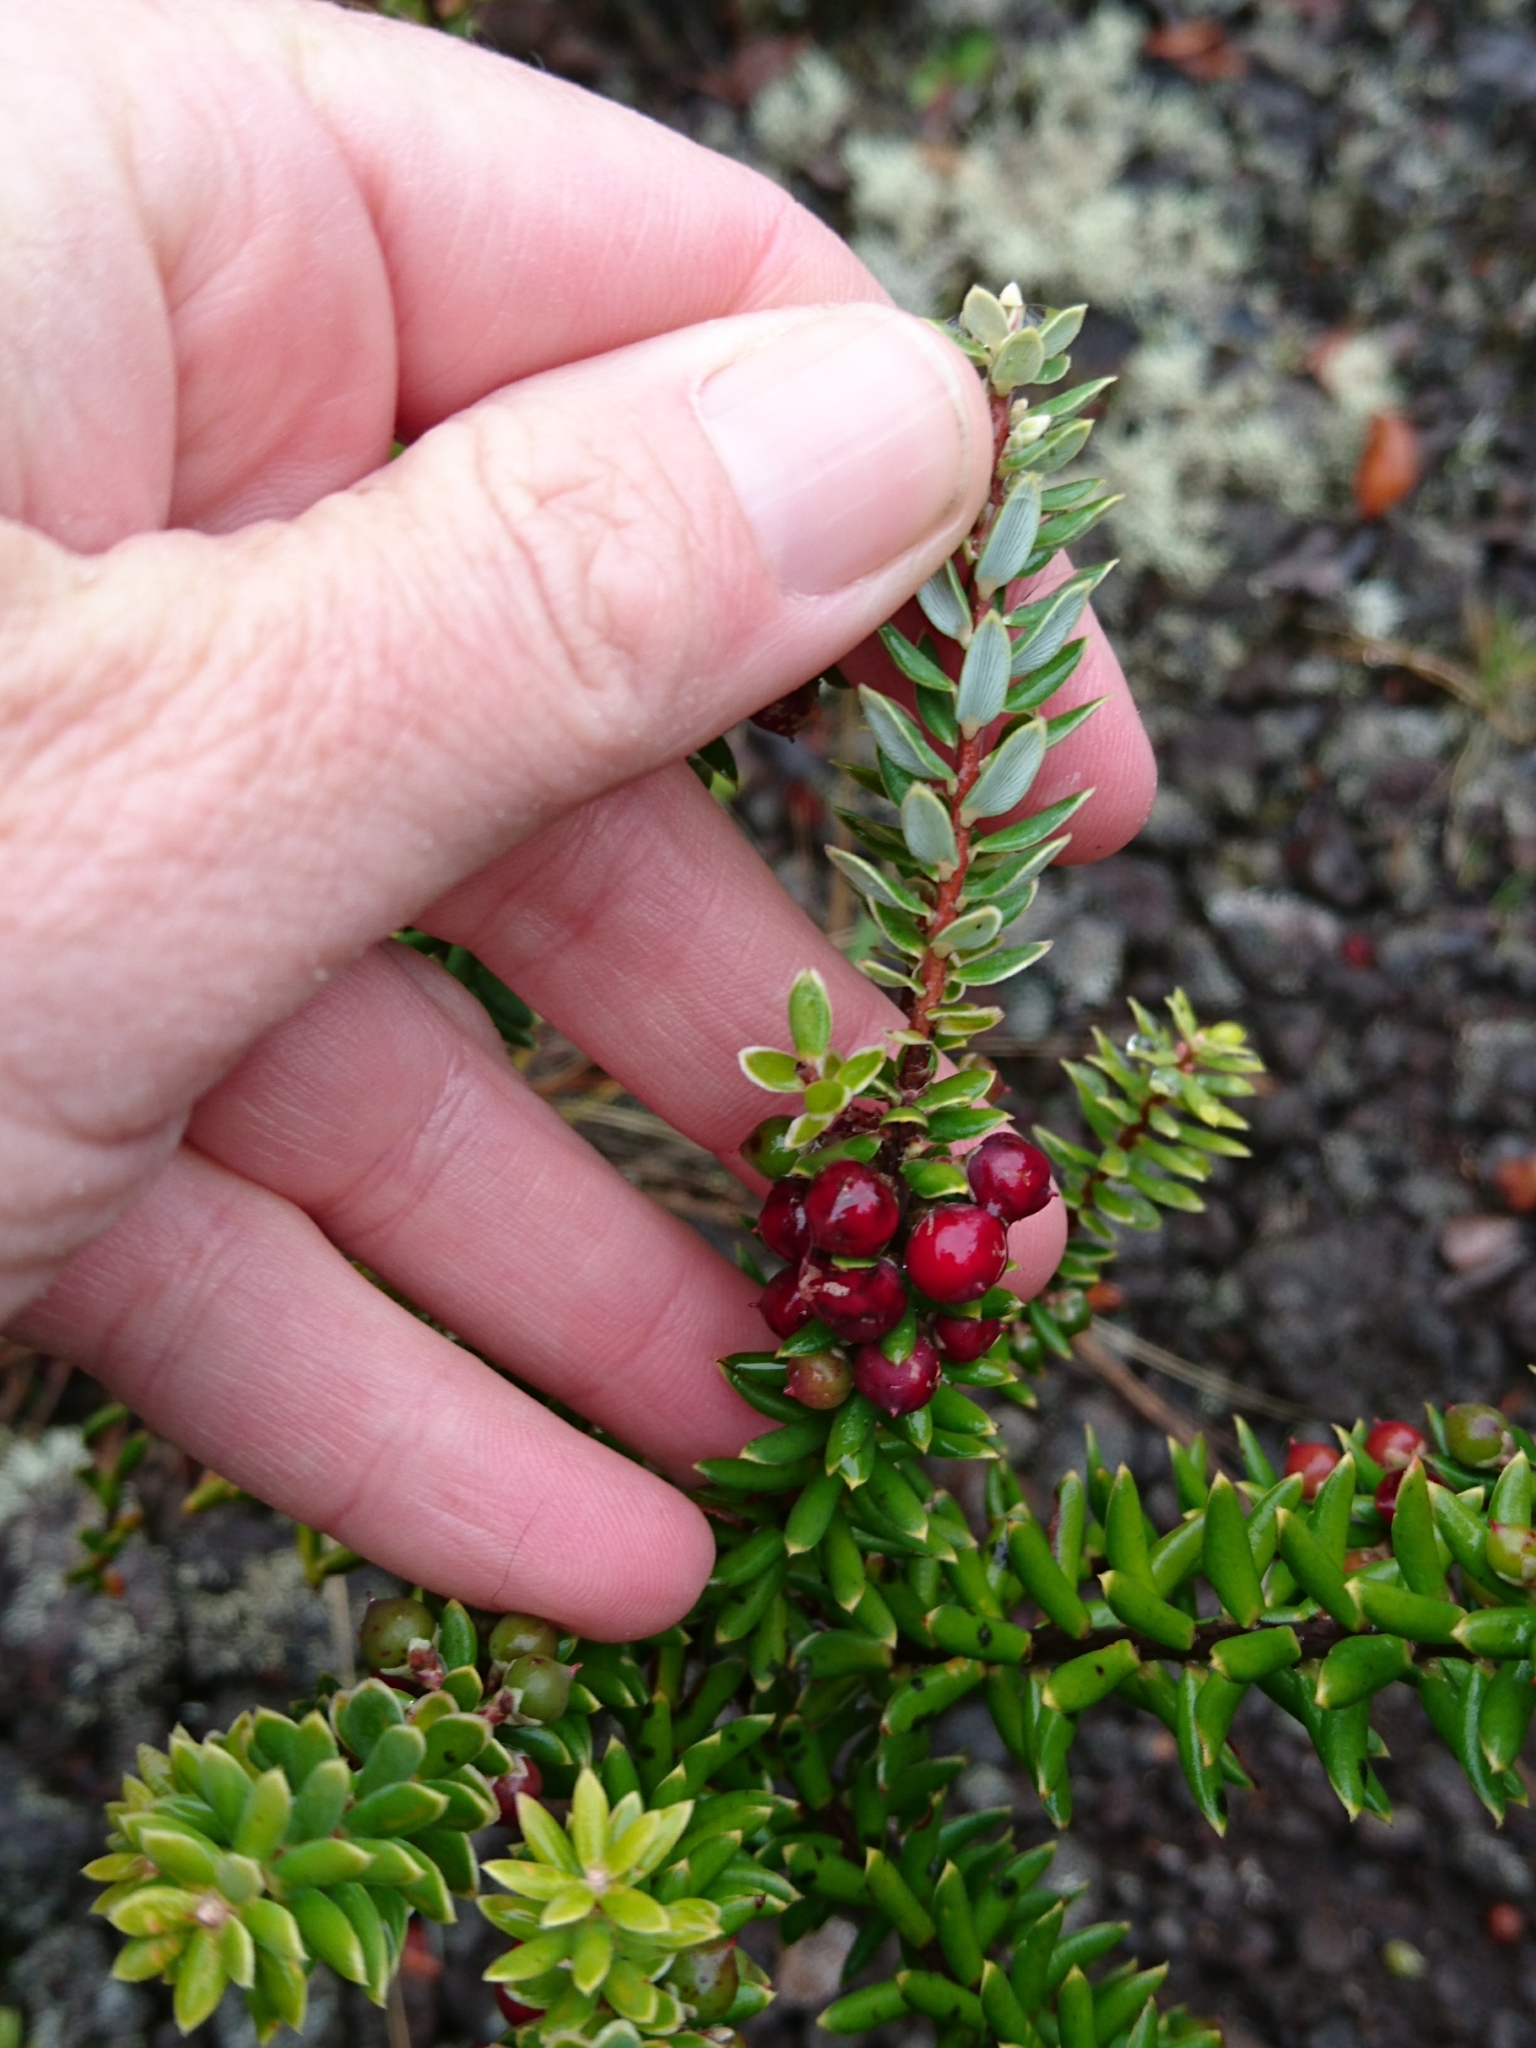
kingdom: Plantae
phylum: Tracheophyta
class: Magnoliopsida
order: Ericales
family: Ericaceae
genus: Leptecophylla
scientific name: Leptecophylla tameiameiae
